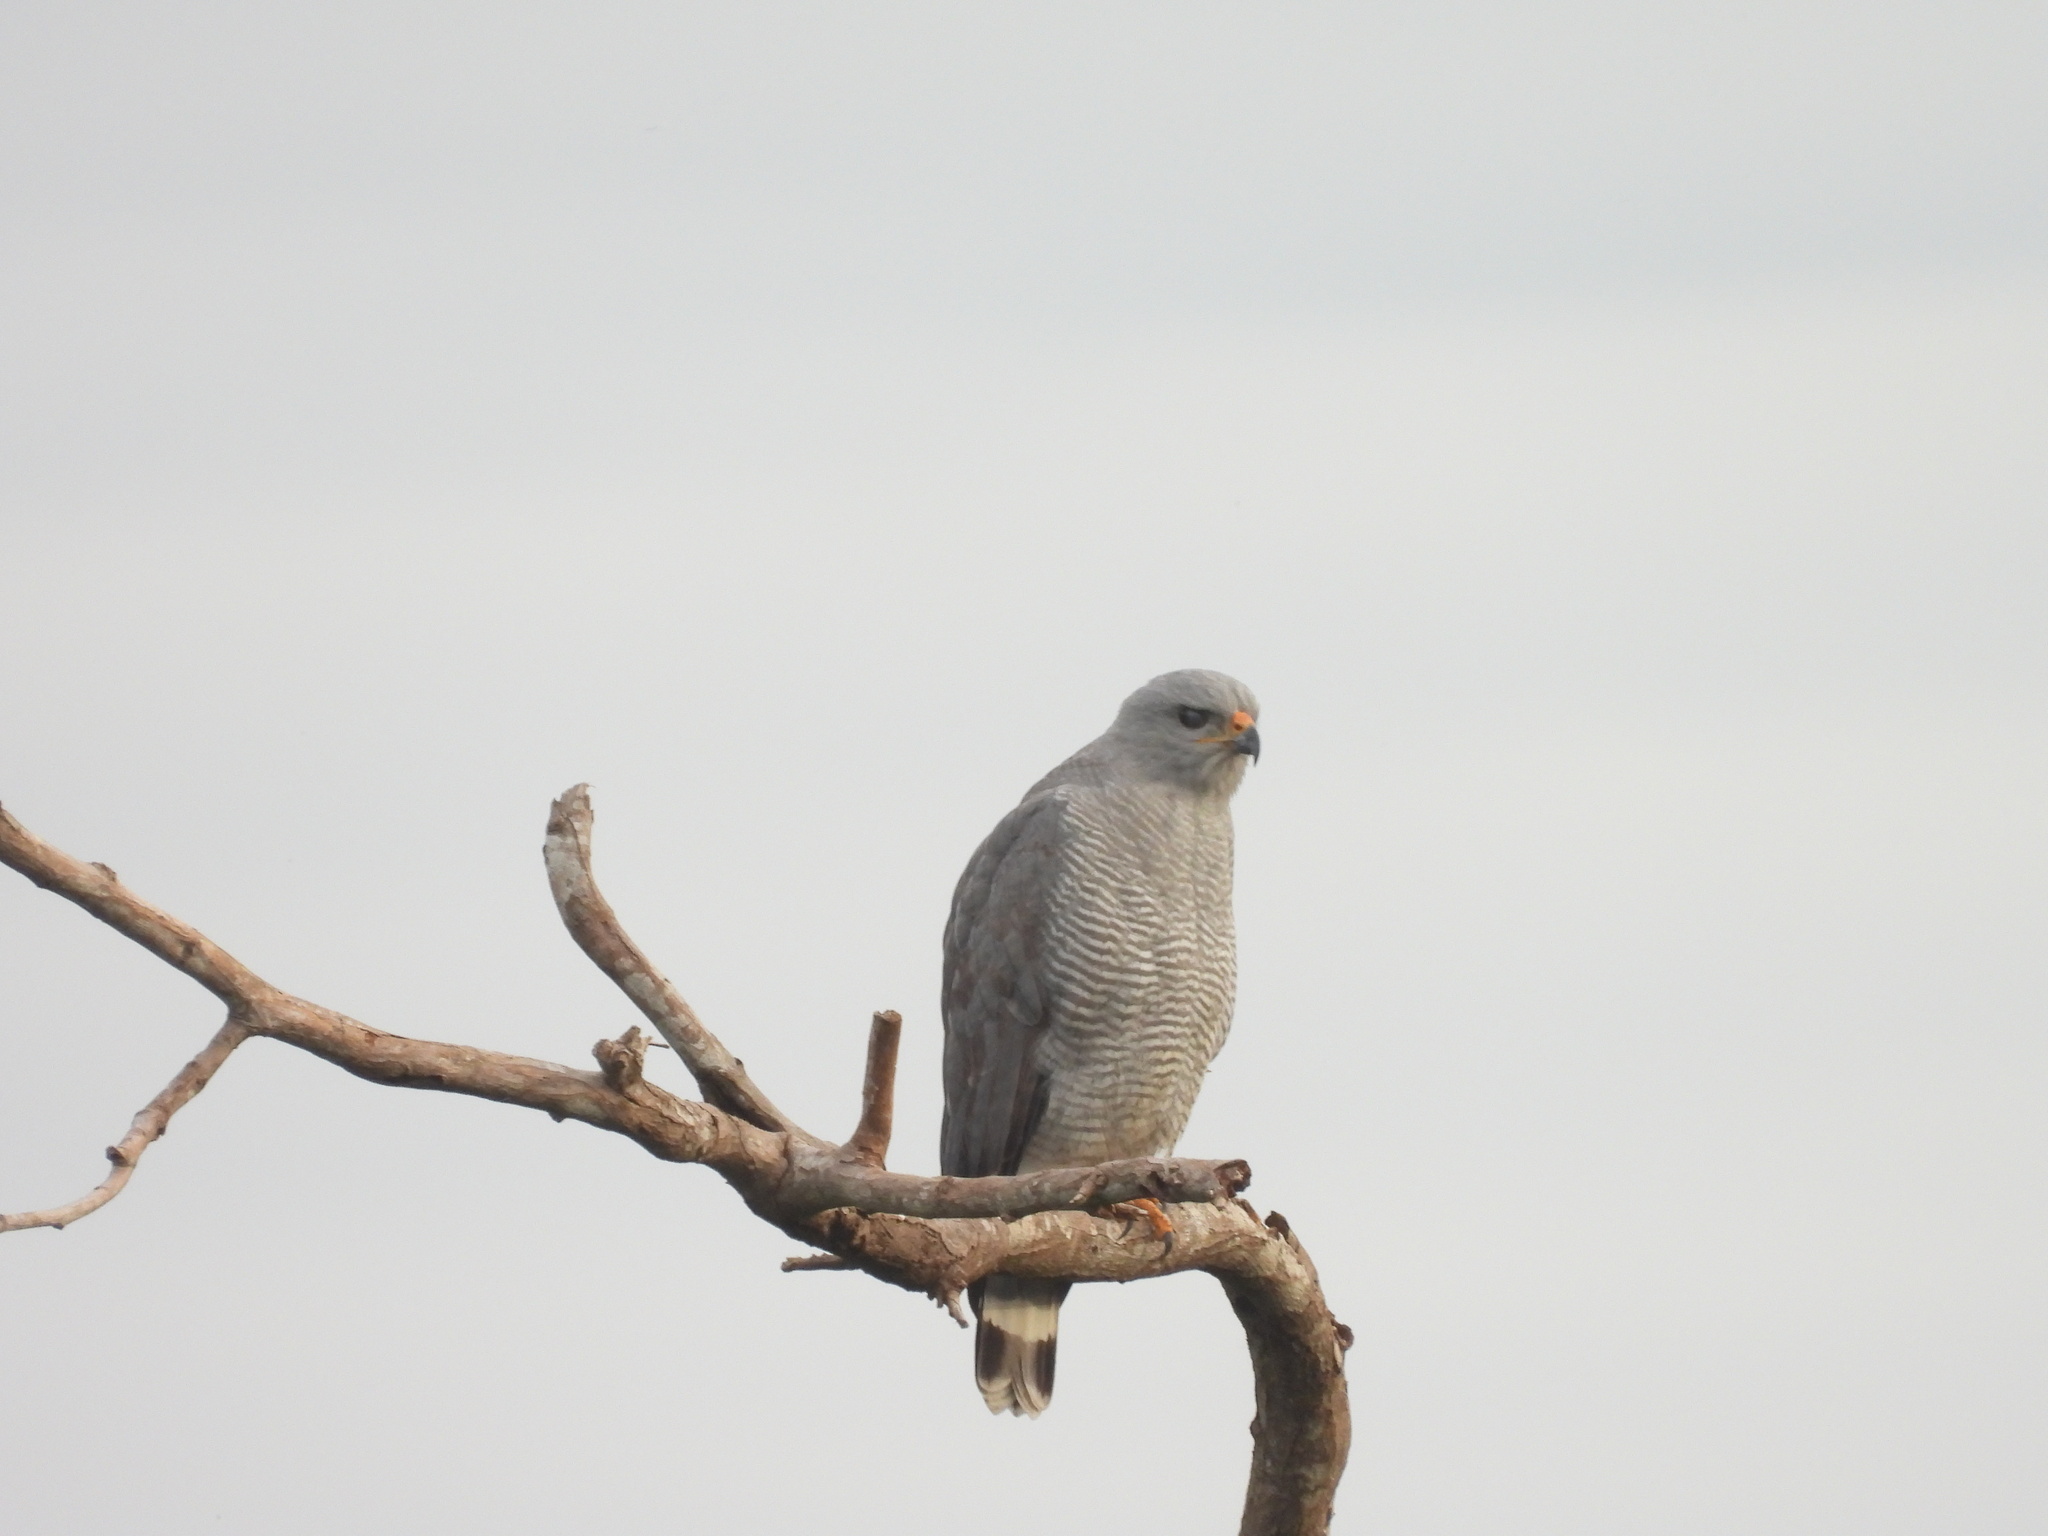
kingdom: Animalia
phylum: Chordata
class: Aves
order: Accipitriformes
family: Accipitridae
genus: Buteo
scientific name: Buteo nitidus
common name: Grey-lined hawk
